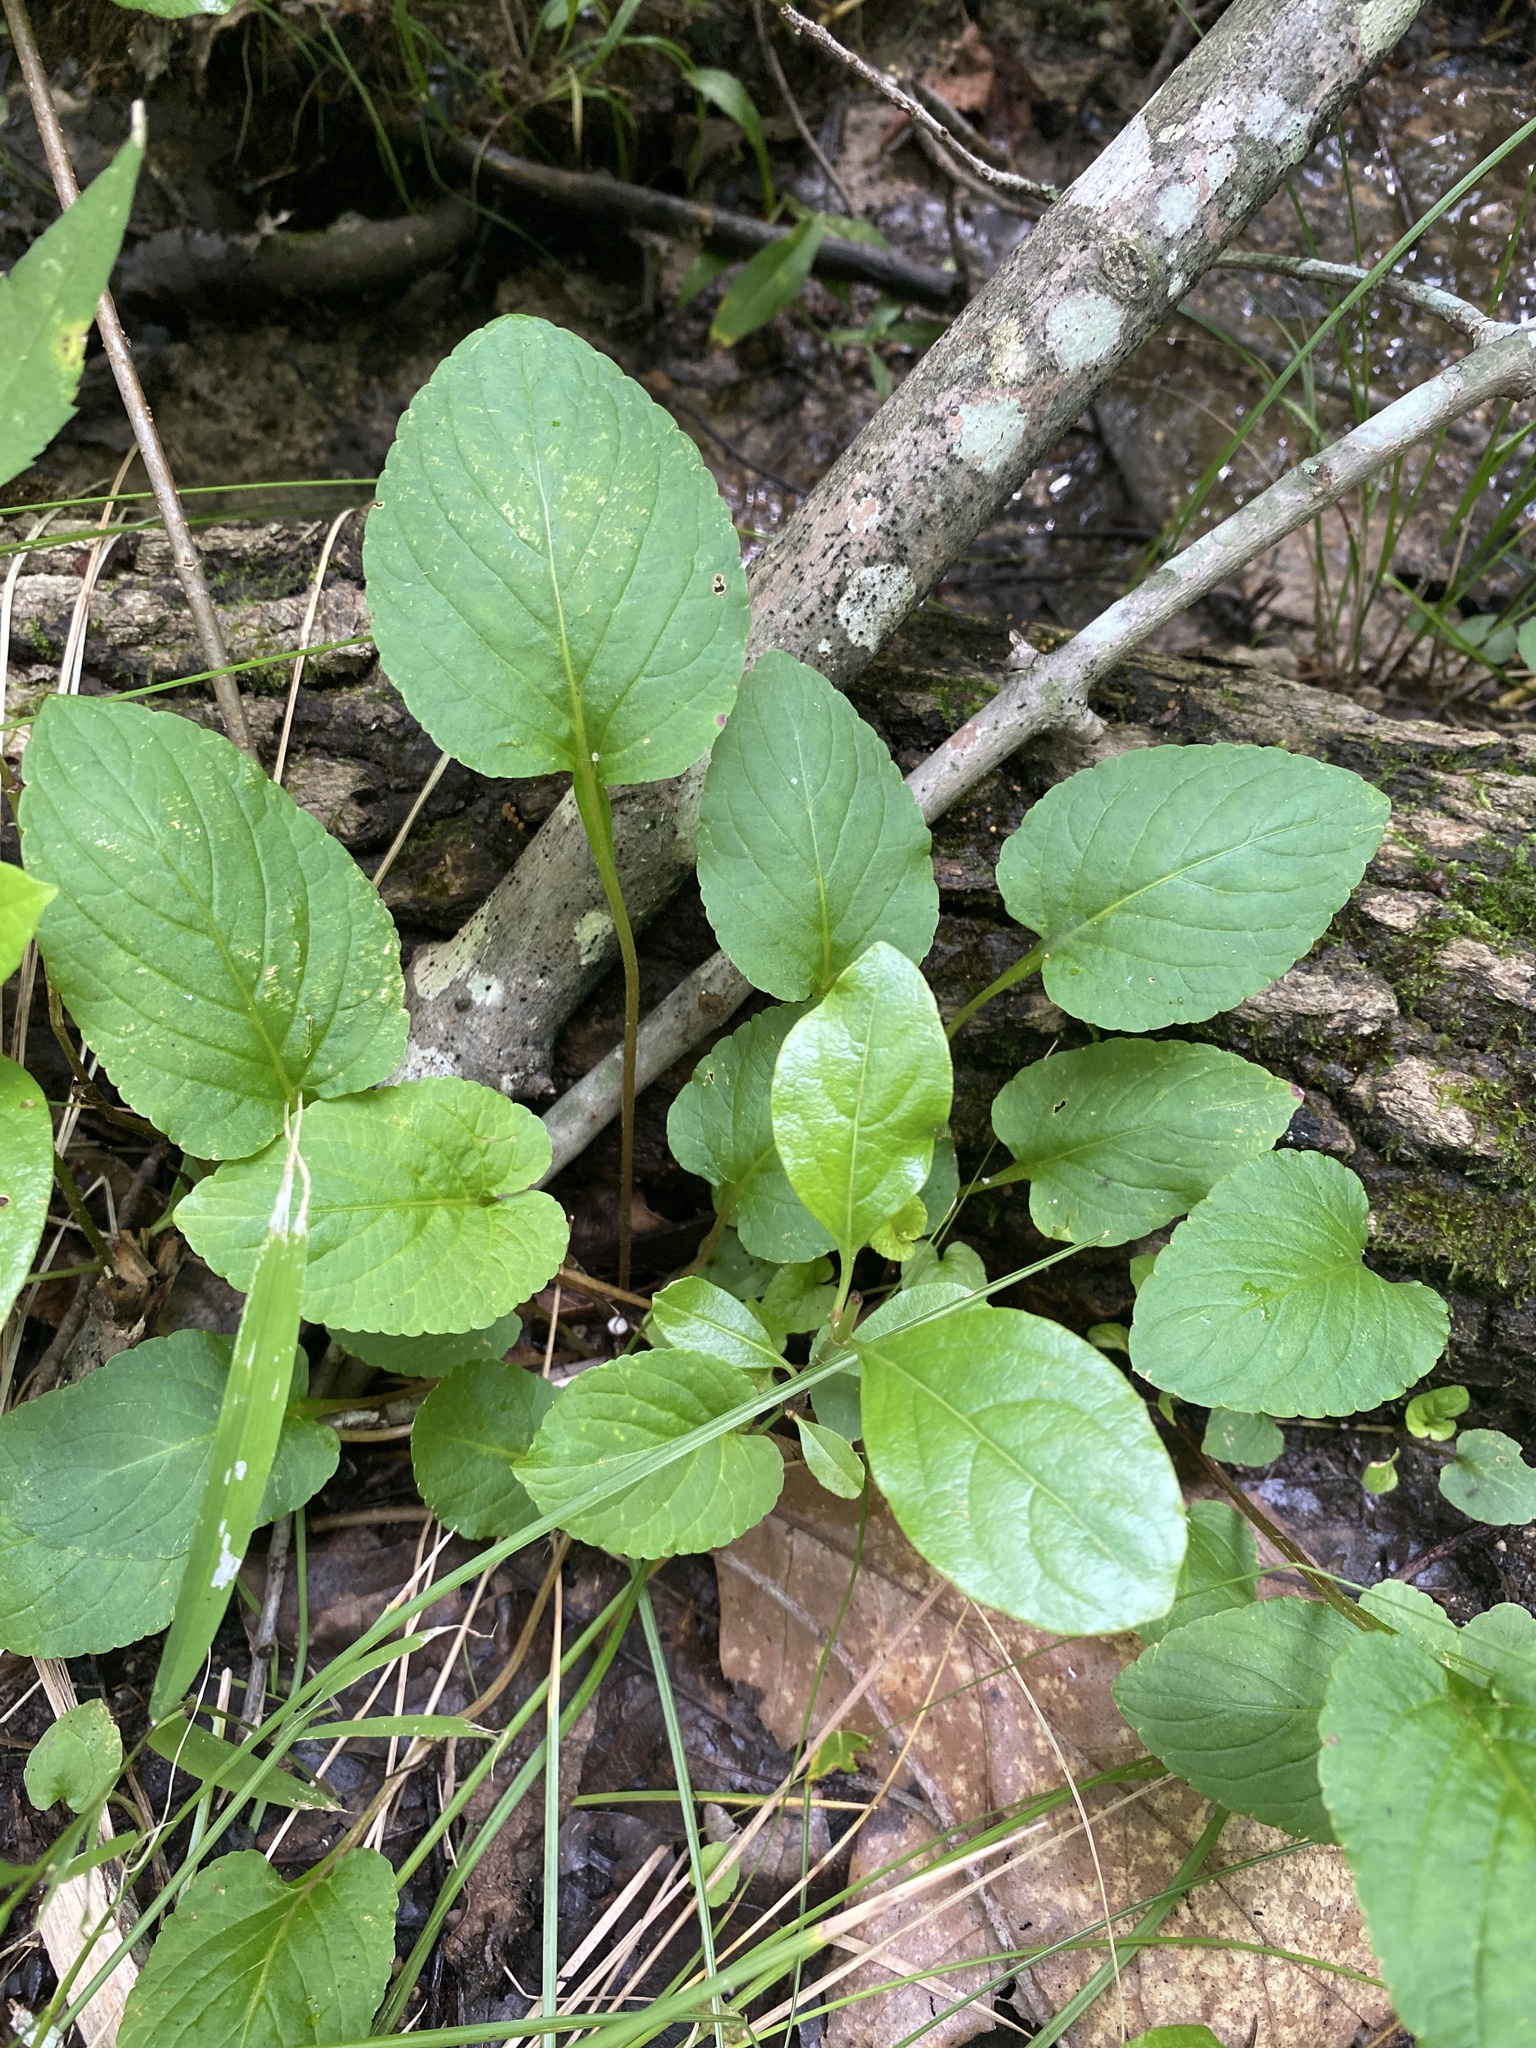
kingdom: Plantae
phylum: Tracheophyta
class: Magnoliopsida
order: Malpighiales
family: Violaceae
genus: Viola
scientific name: Viola primulifolia
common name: Primrose-leaf violet
